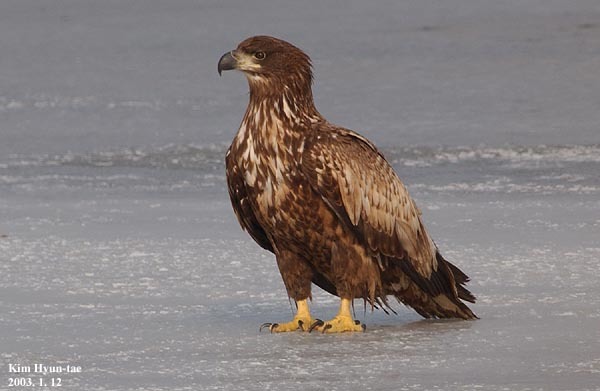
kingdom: Animalia
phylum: Chordata
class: Aves
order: Accipitriformes
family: Accipitridae
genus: Haliaeetus
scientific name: Haliaeetus albicilla
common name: White-tailed eagle
